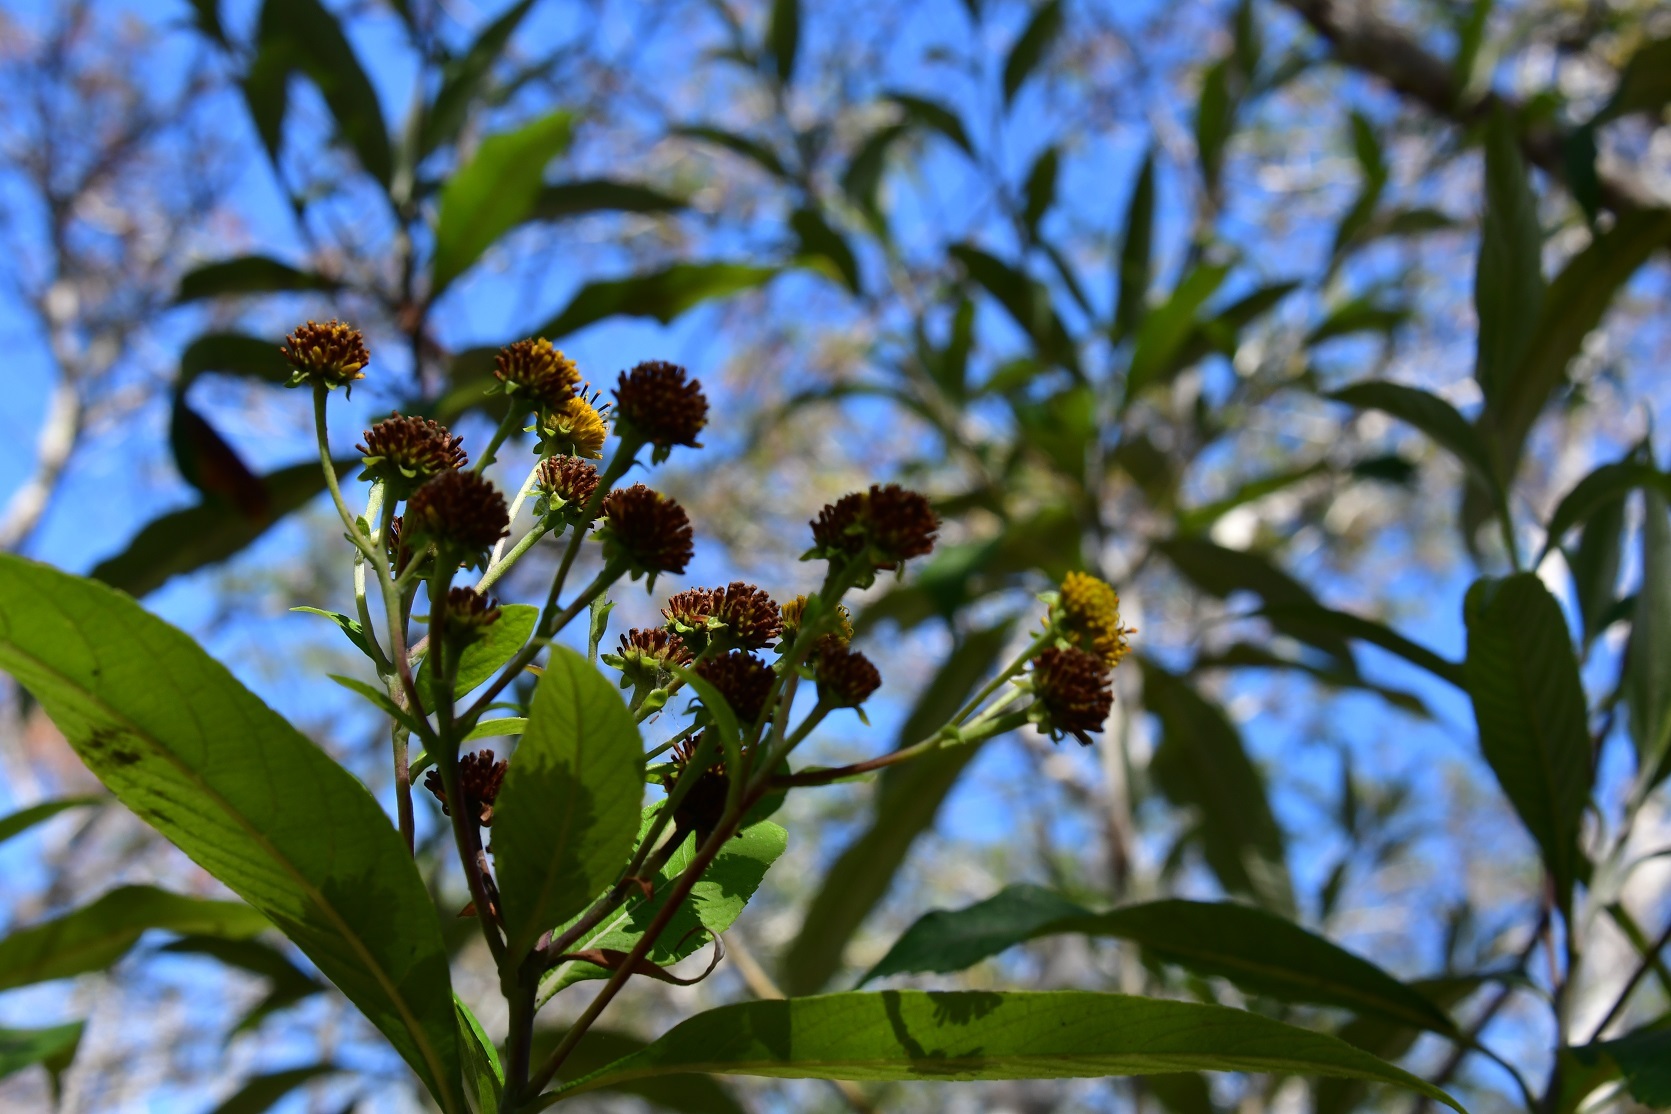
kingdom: Plantae
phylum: Tracheophyta
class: Magnoliopsida
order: Asterales
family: Asteraceae
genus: Verbesina
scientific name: Verbesina hypargyrea
